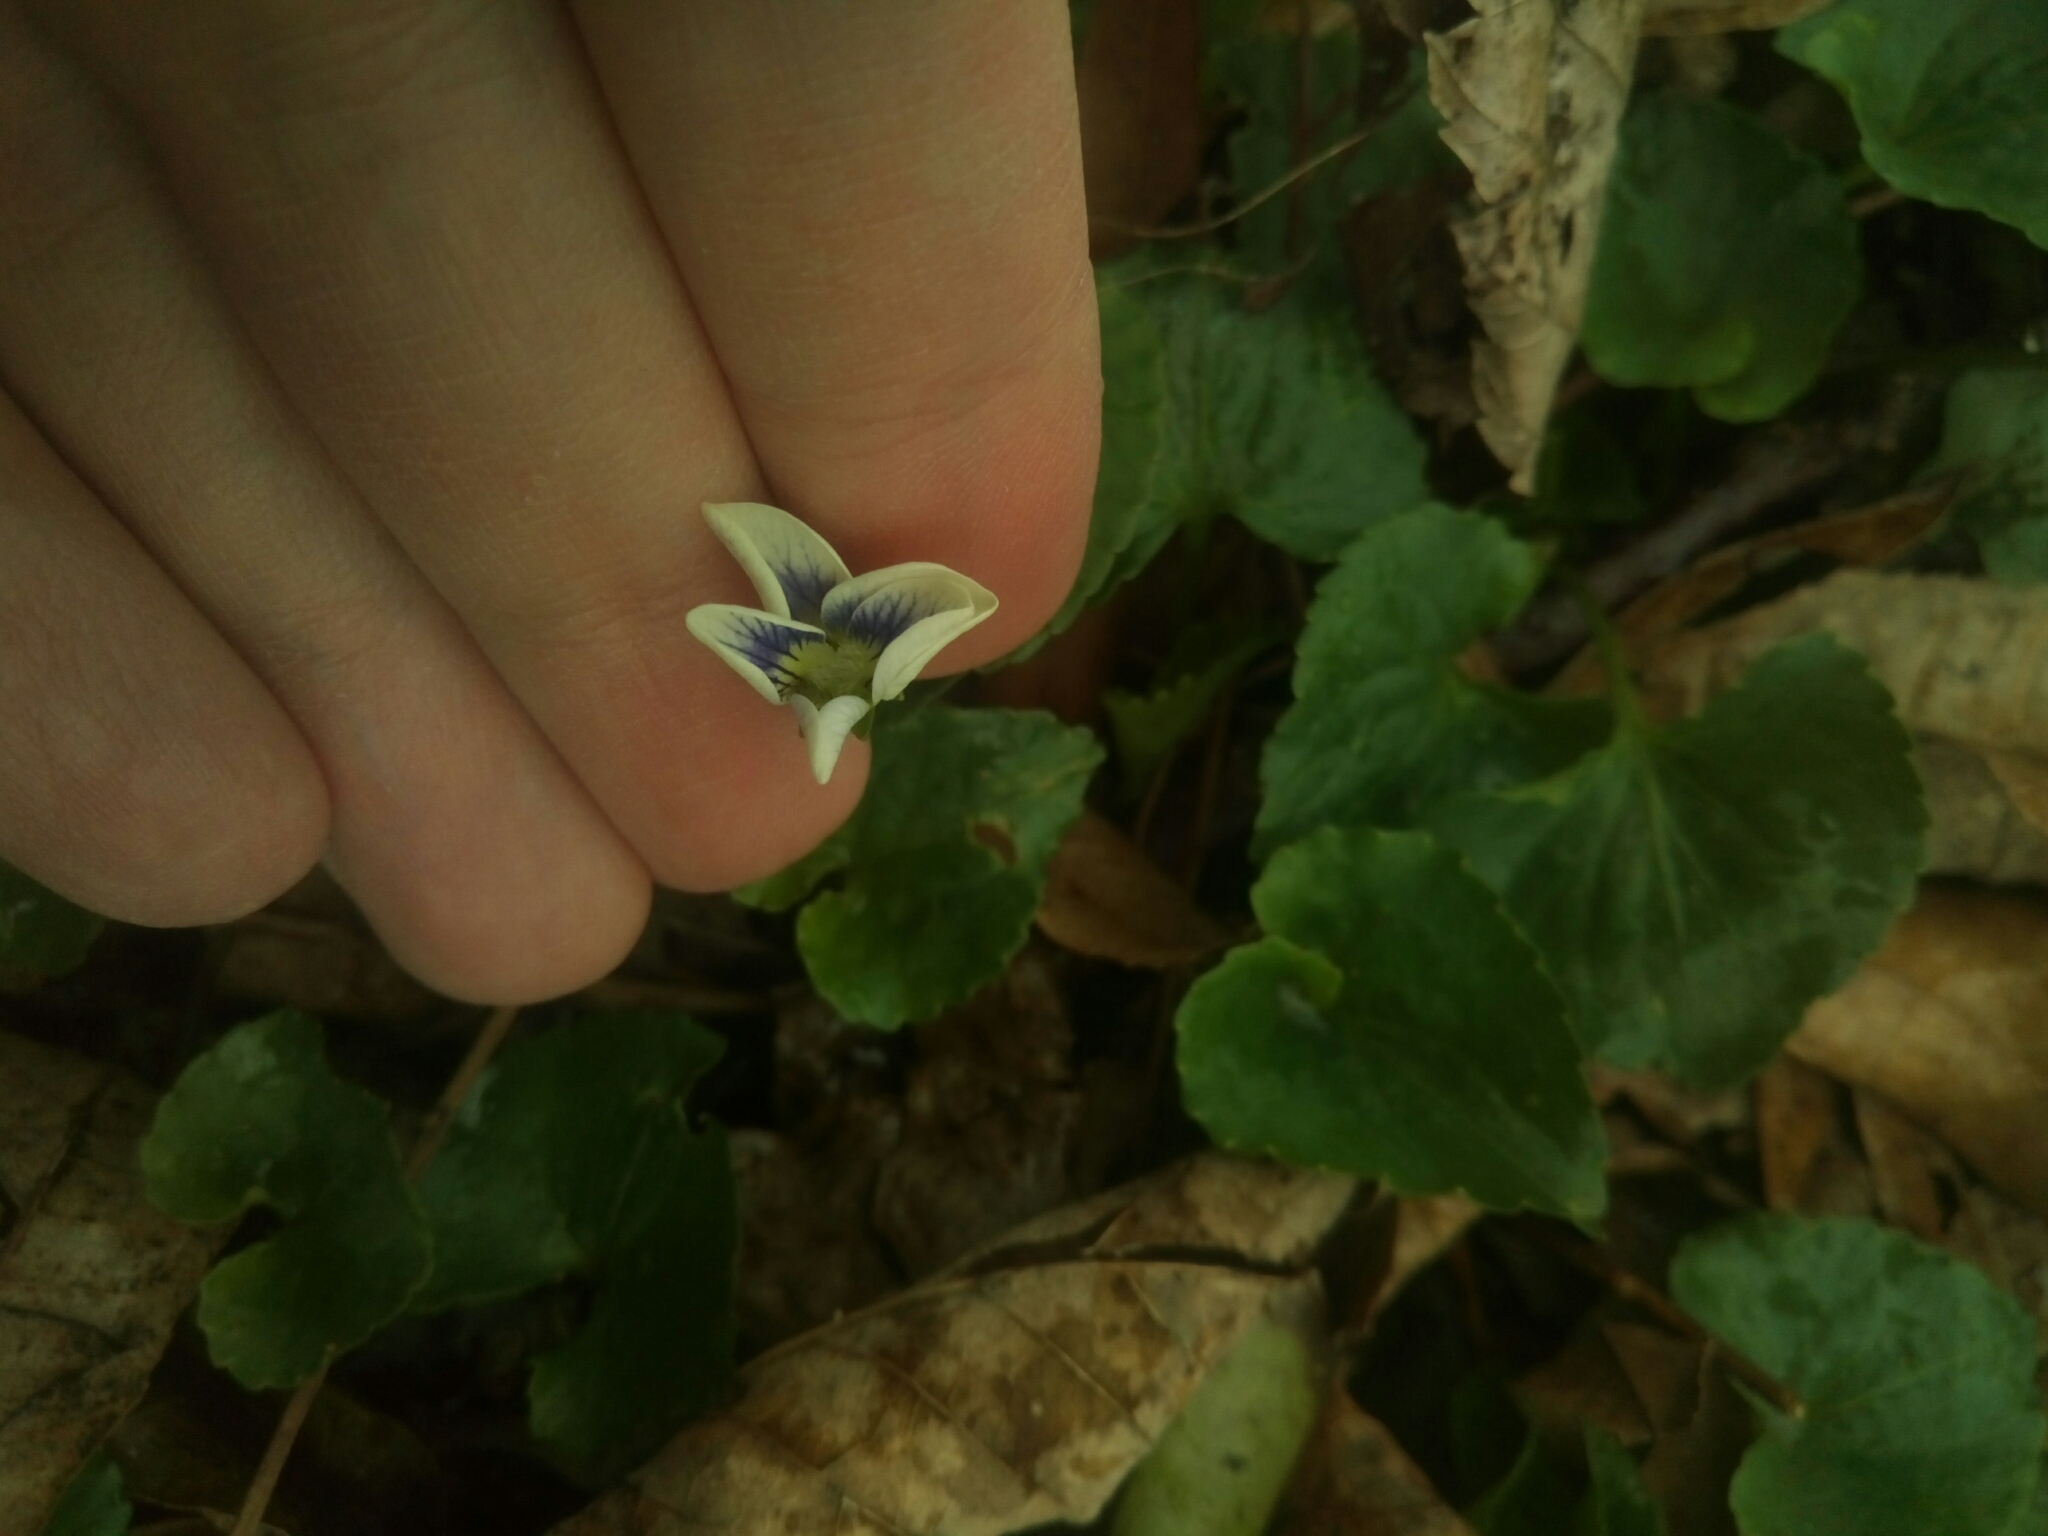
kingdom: Plantae
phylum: Tracheophyta
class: Magnoliopsida
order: Malpighiales
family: Violaceae
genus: Viola
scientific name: Viola sororia
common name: Dooryard violet
